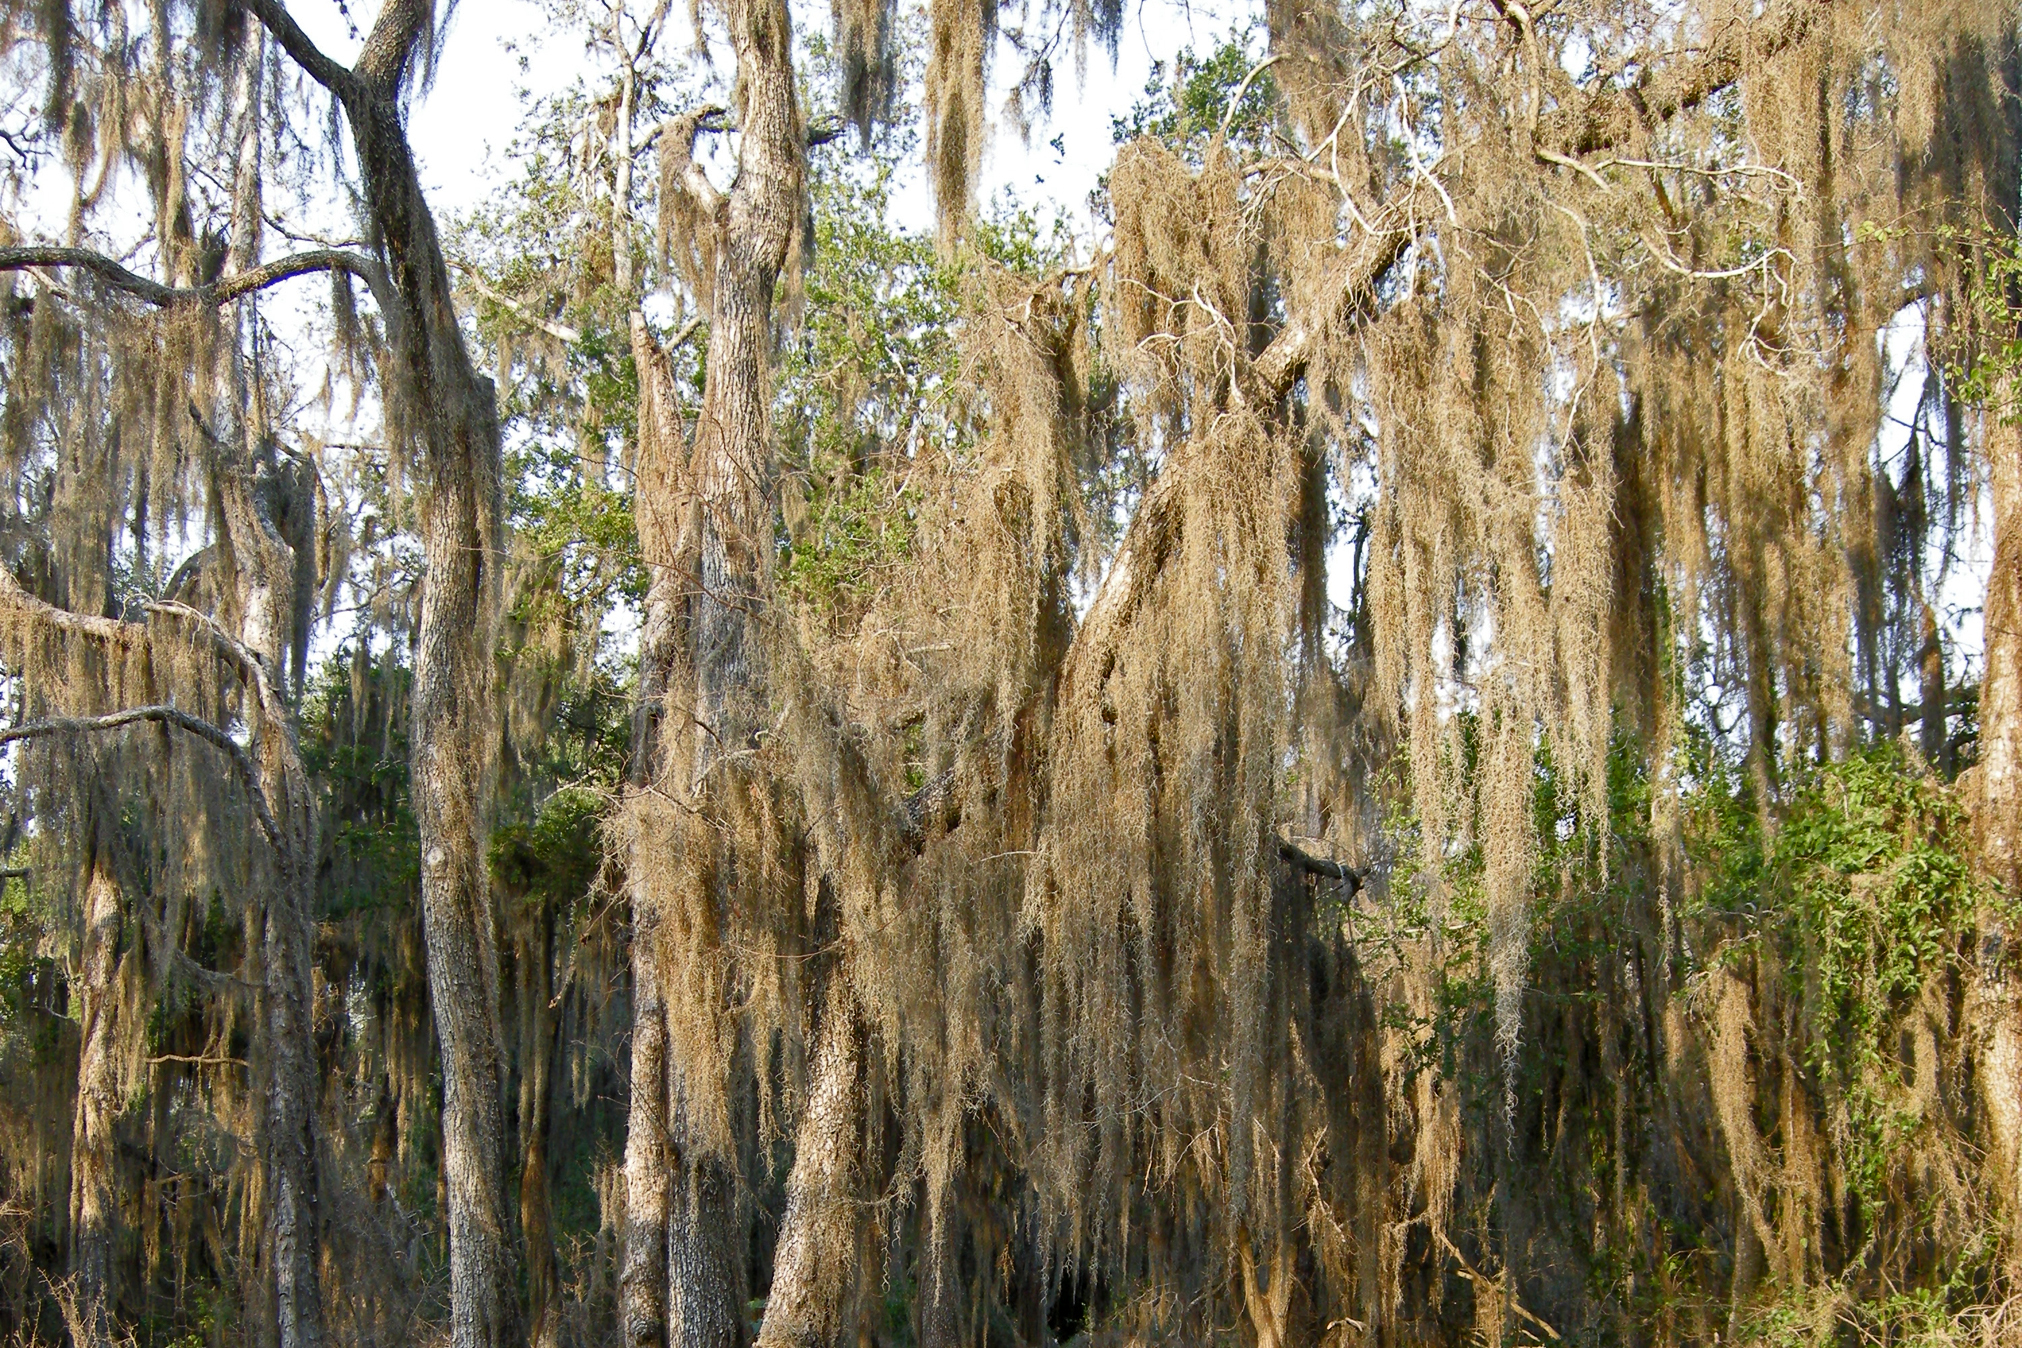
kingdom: Plantae
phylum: Tracheophyta
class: Liliopsida
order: Poales
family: Bromeliaceae
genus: Tillandsia
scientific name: Tillandsia usneoides
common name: Spanish moss
